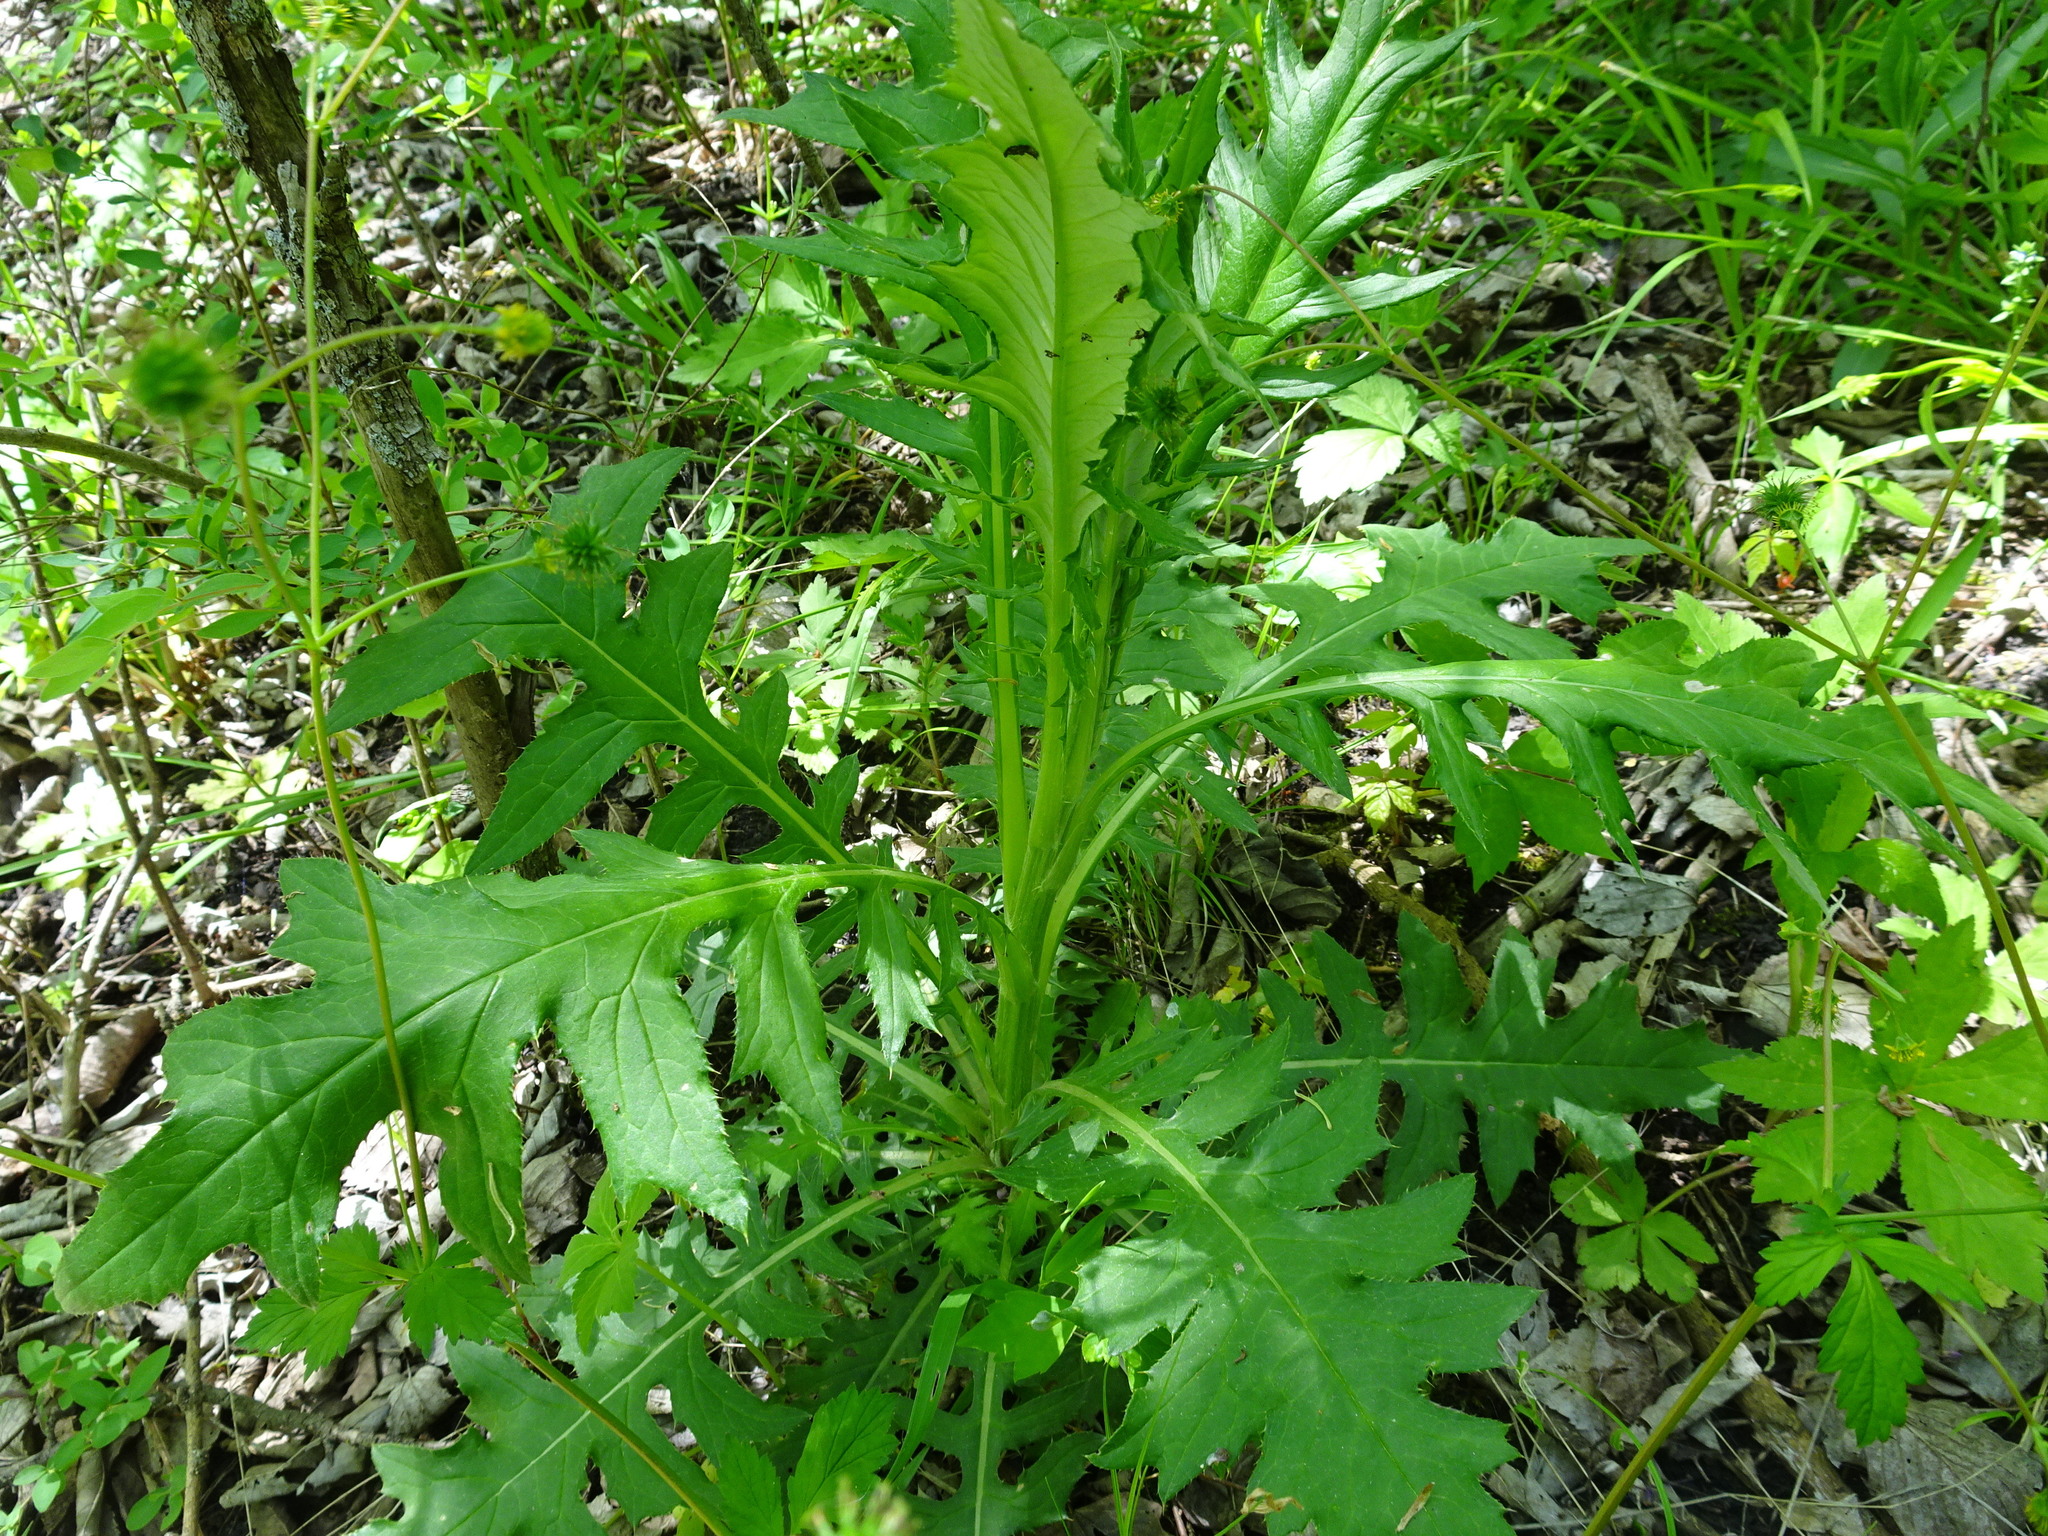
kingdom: Plantae
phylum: Tracheophyta
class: Magnoliopsida
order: Asterales
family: Asteraceae
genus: Cirsium
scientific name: Cirsium altissimum
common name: Roadside thistle
